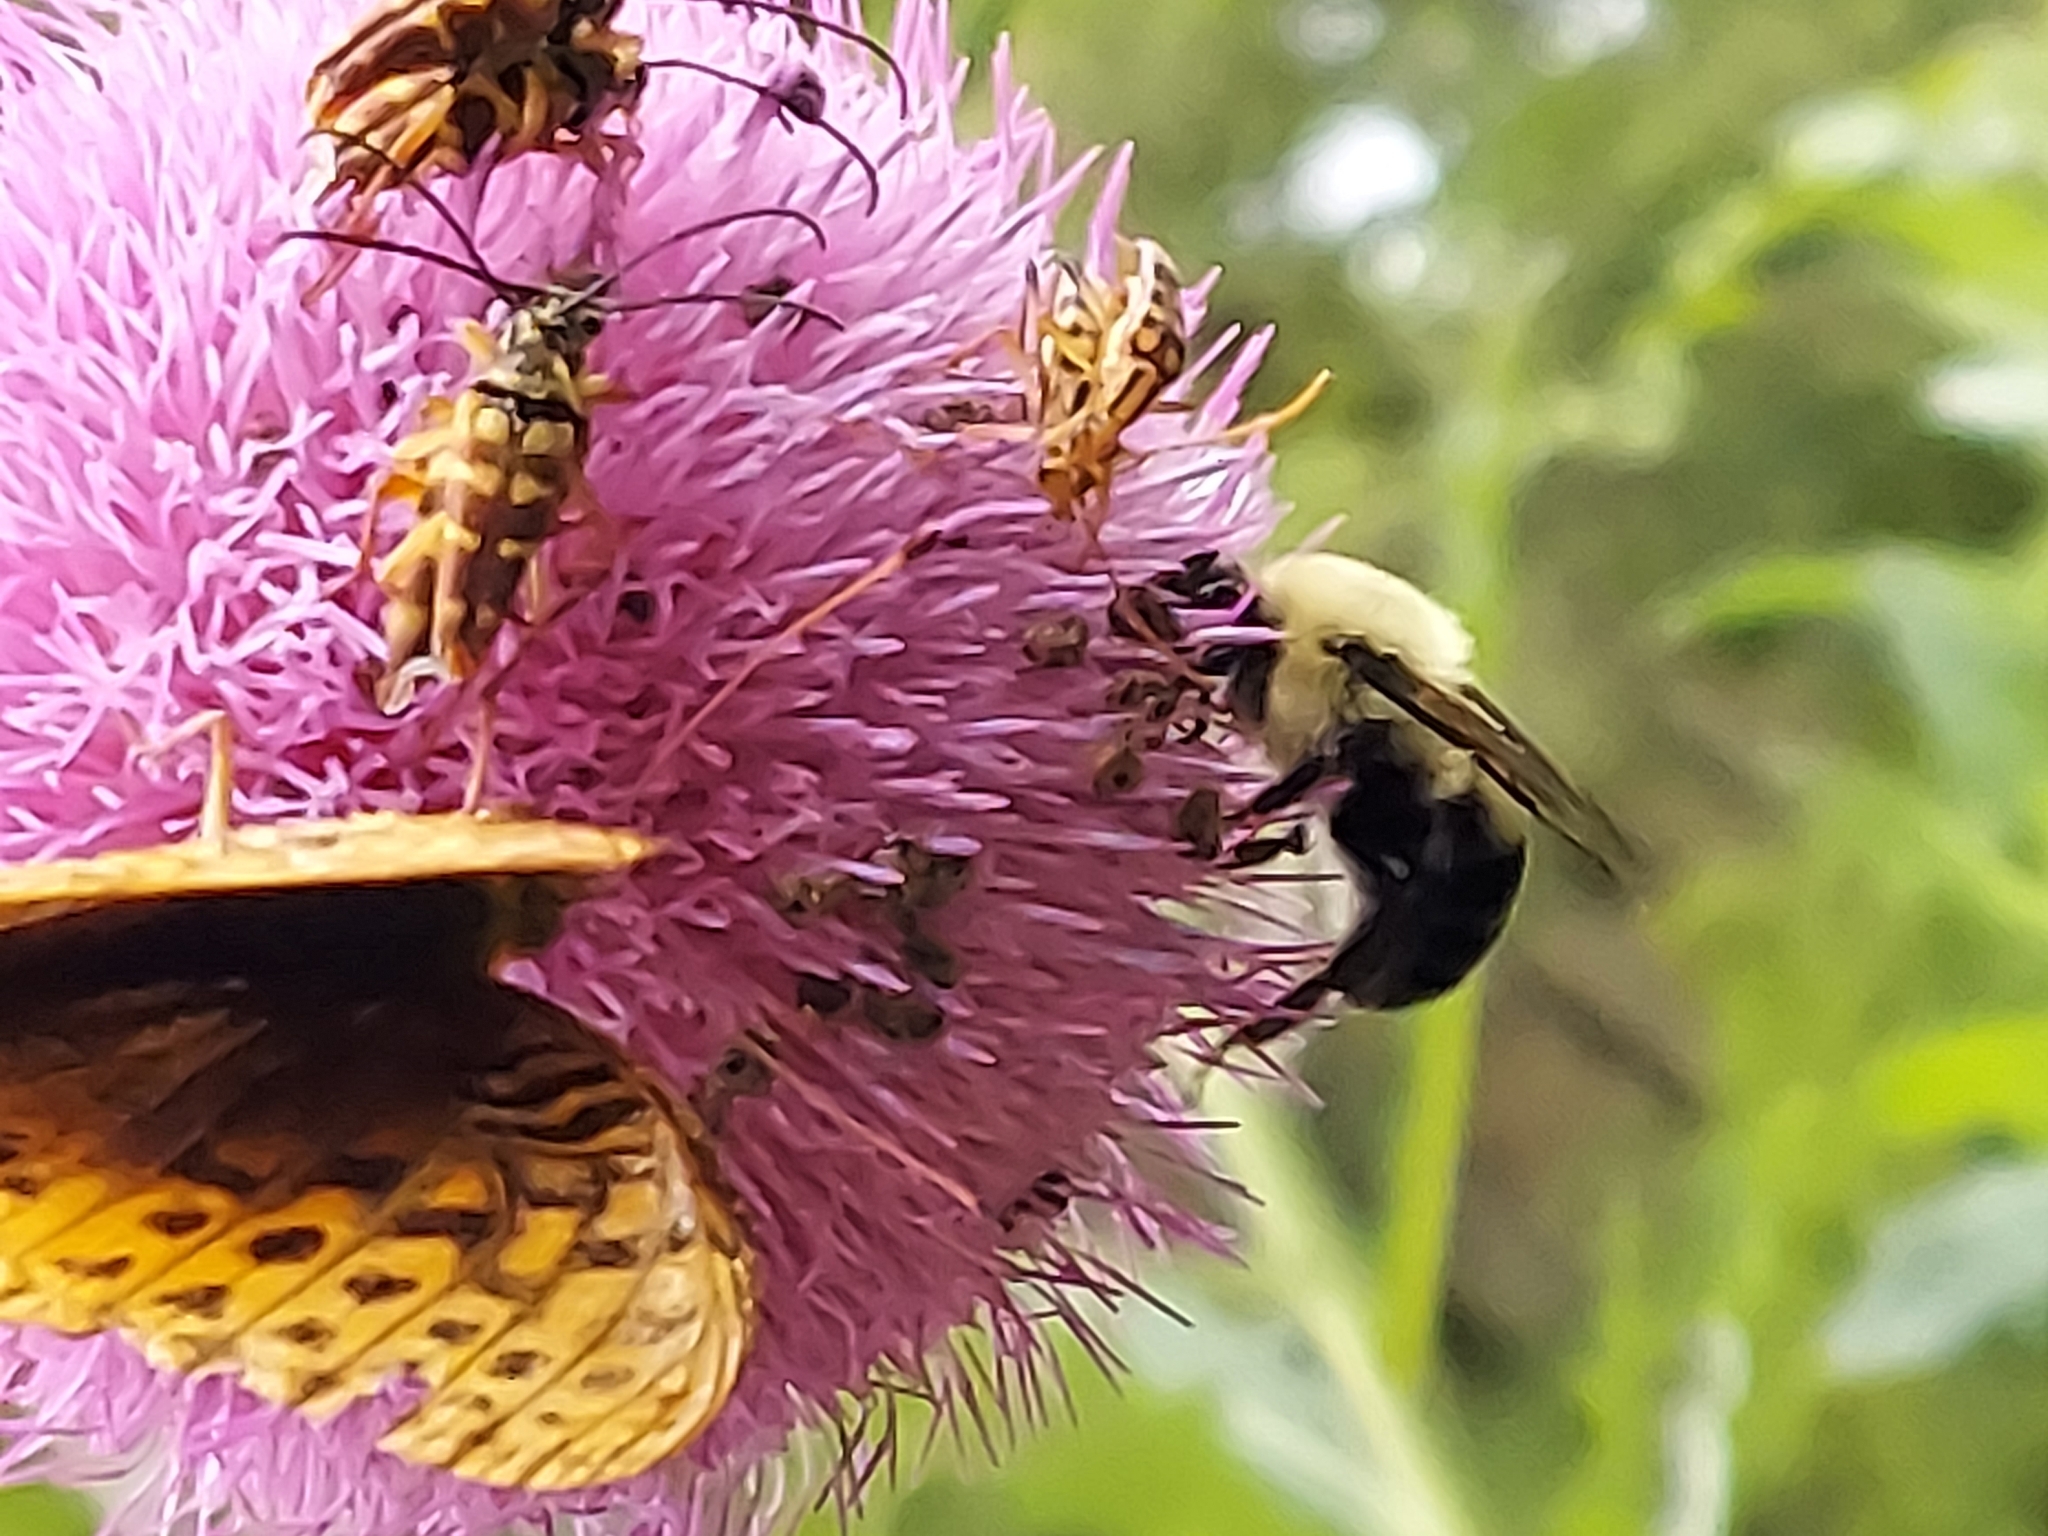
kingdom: Animalia
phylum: Arthropoda
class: Insecta
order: Hymenoptera
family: Apidae
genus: Bombus
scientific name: Bombus bimaculatus
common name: Two-spotted bumble bee
